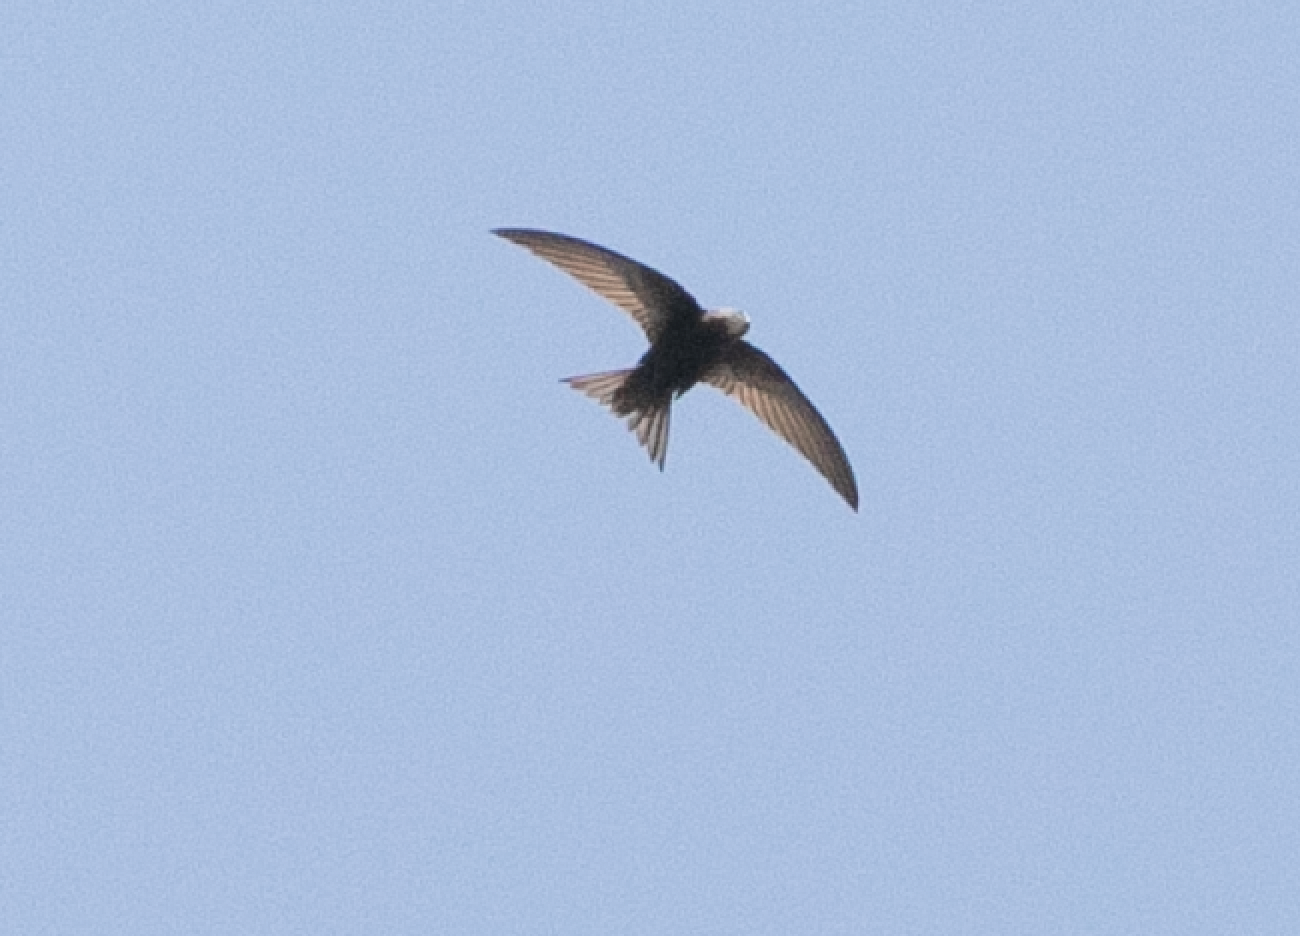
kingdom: Animalia
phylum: Chordata
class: Aves
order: Apodiformes
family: Apodidae
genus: Apus
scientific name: Apus apus
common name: Common swift
